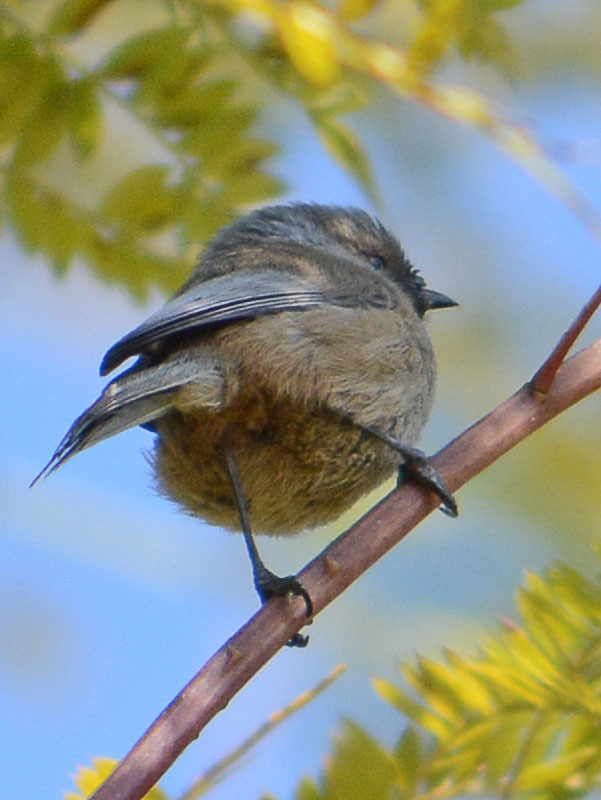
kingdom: Animalia
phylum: Chordata
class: Aves
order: Passeriformes
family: Aegithalidae
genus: Psaltriparus
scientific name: Psaltriparus minimus
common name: American bushtit
